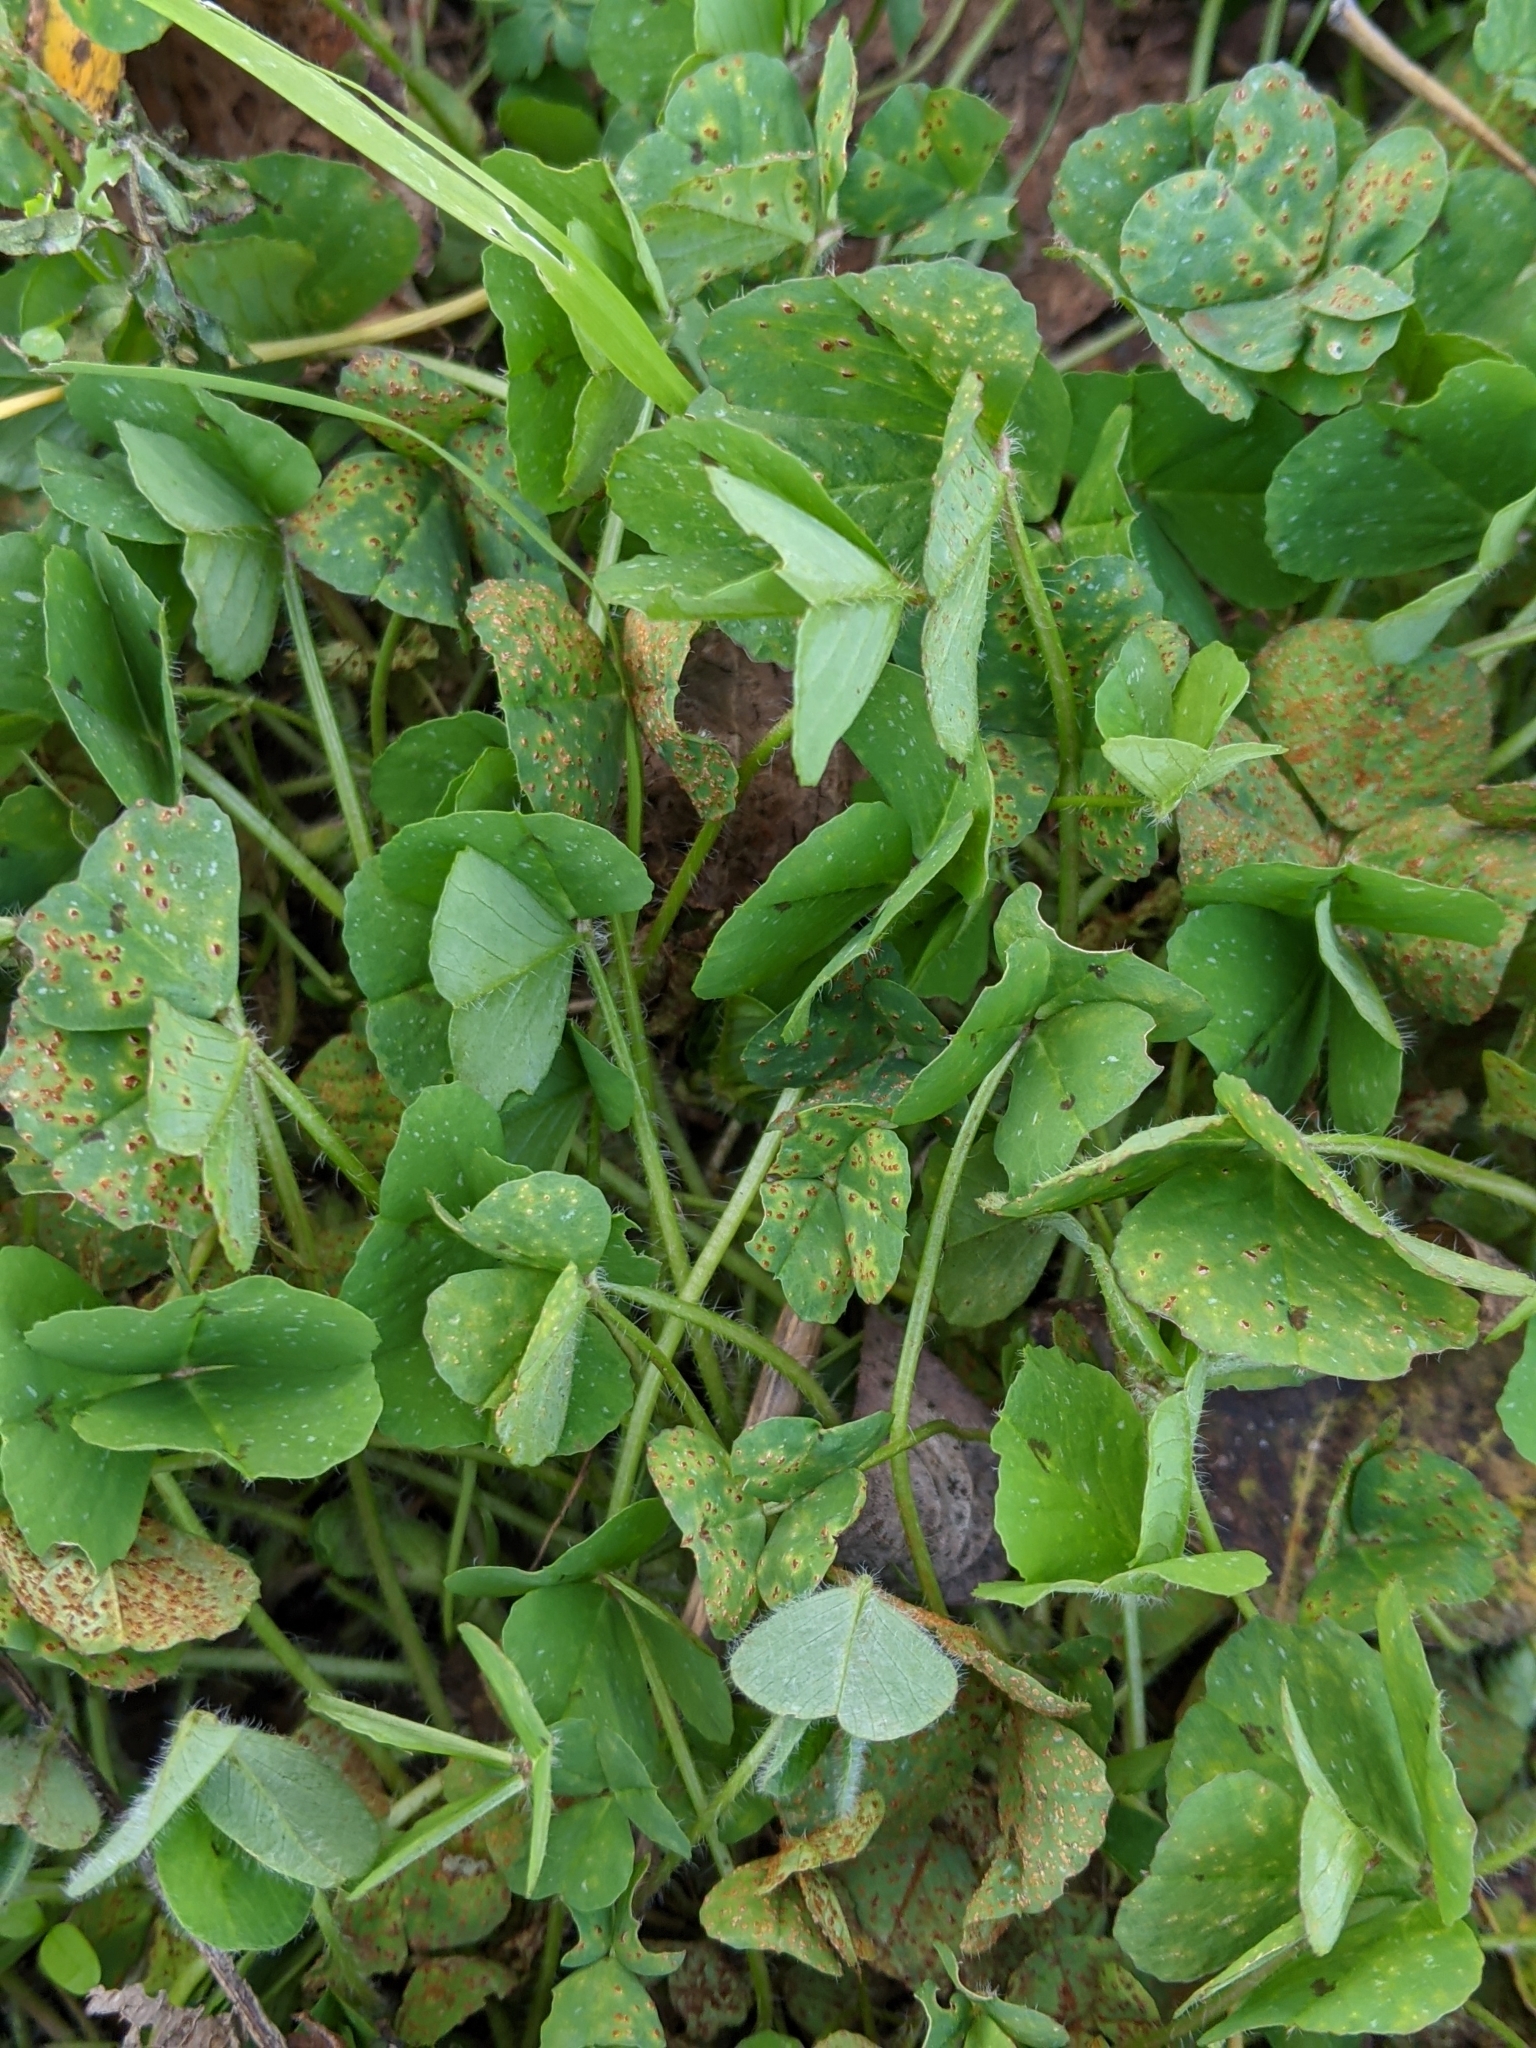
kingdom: Plantae
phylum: Tracheophyta
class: Magnoliopsida
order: Fabales
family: Fabaceae
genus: Medicago
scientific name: Medicago arabica
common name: Spotted medick
